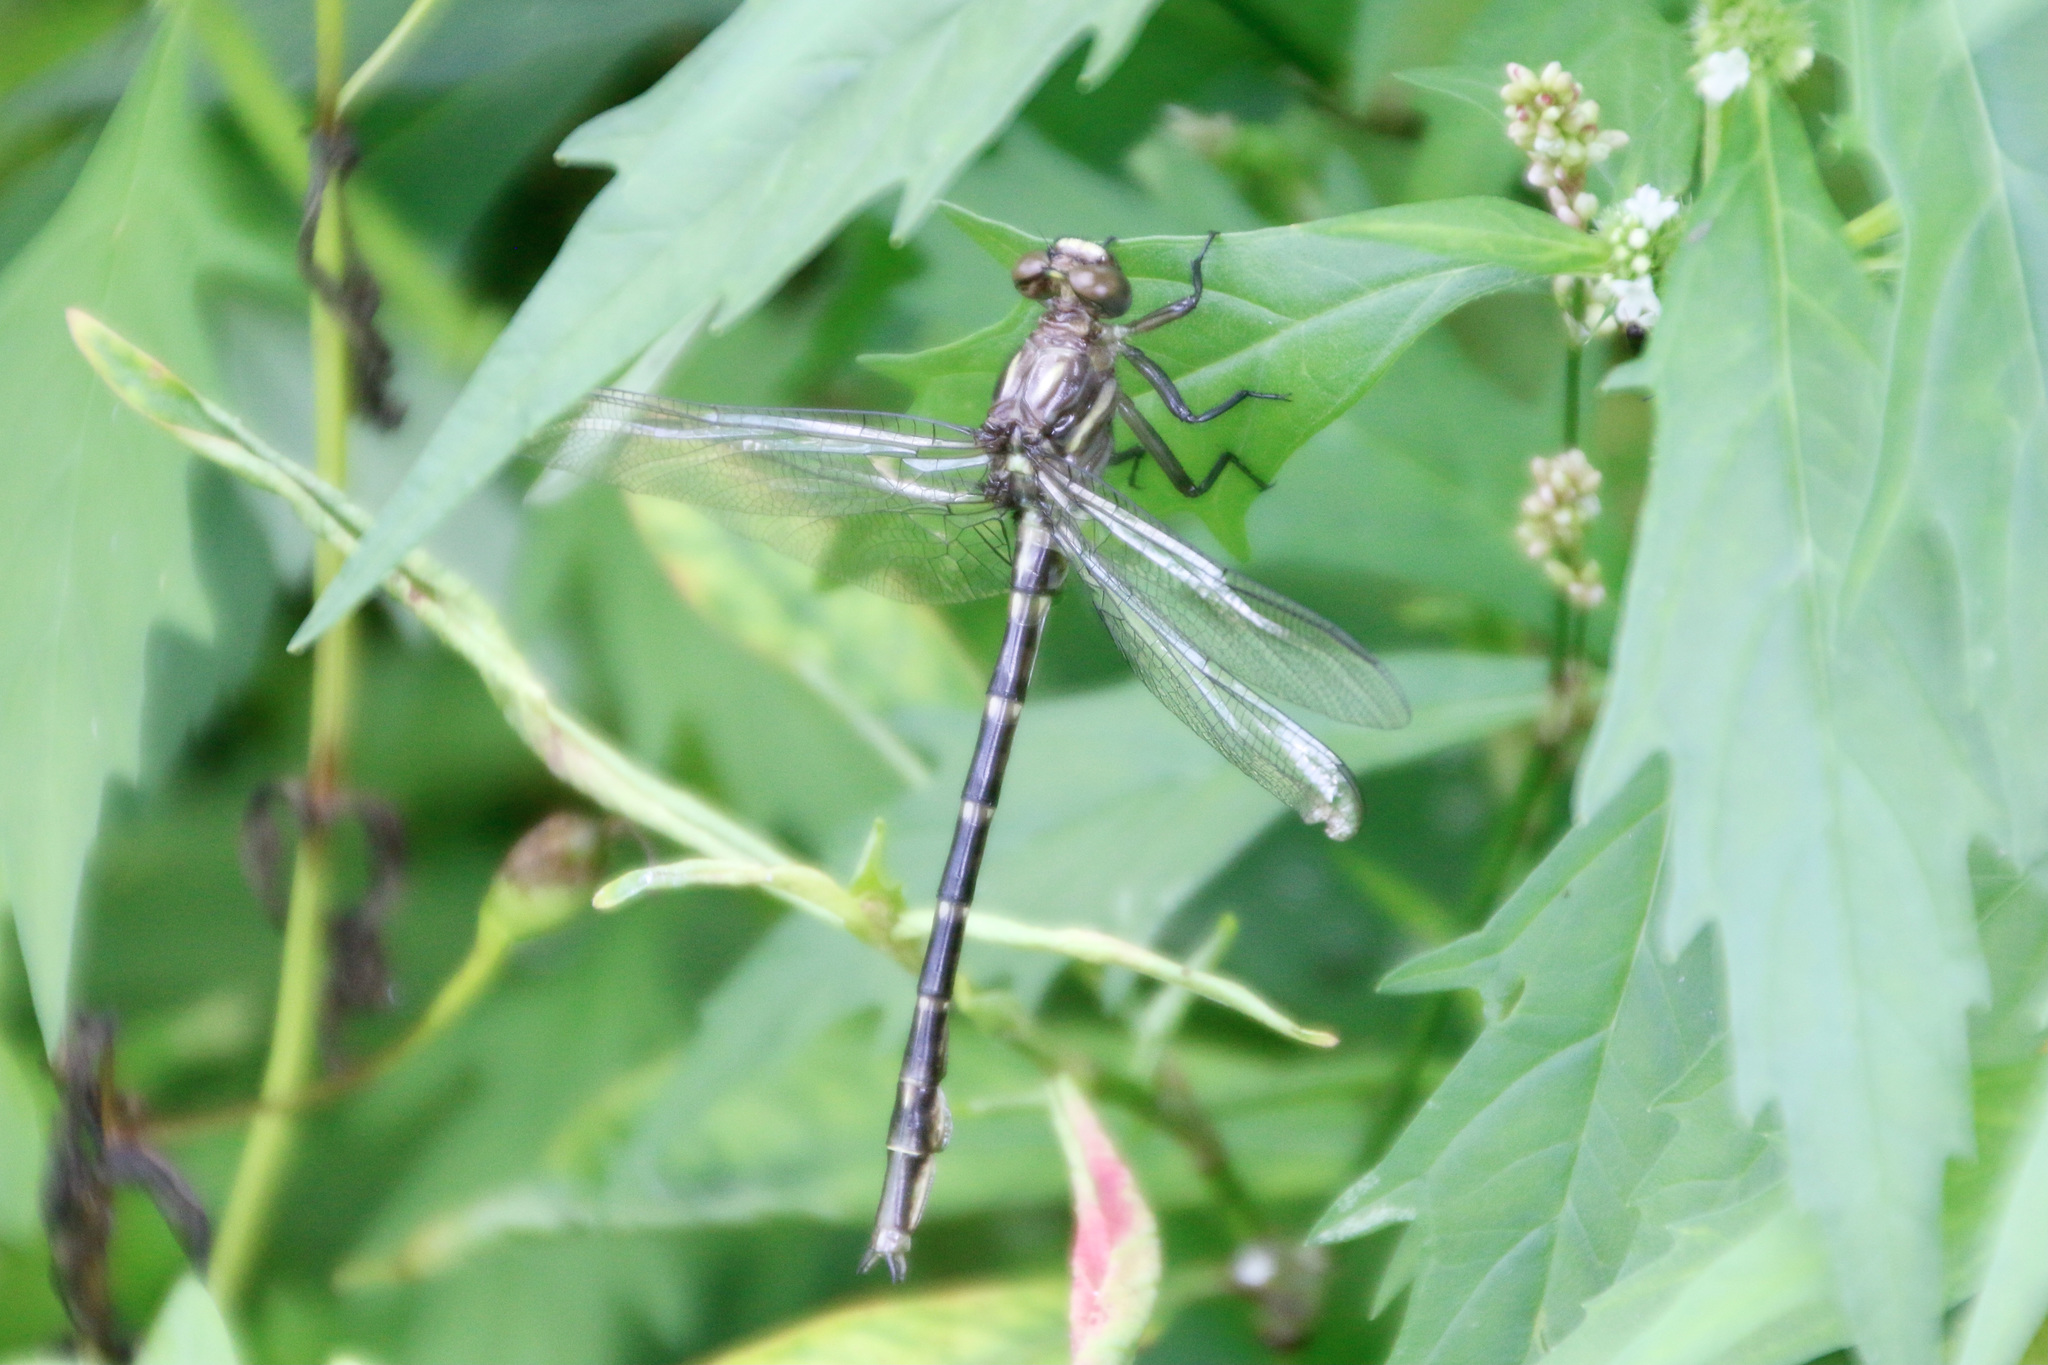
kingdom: Animalia
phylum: Arthropoda
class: Insecta
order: Odonata
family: Gomphidae
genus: Stylurus
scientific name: Stylurus spiniceps
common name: Arrow clubtail
